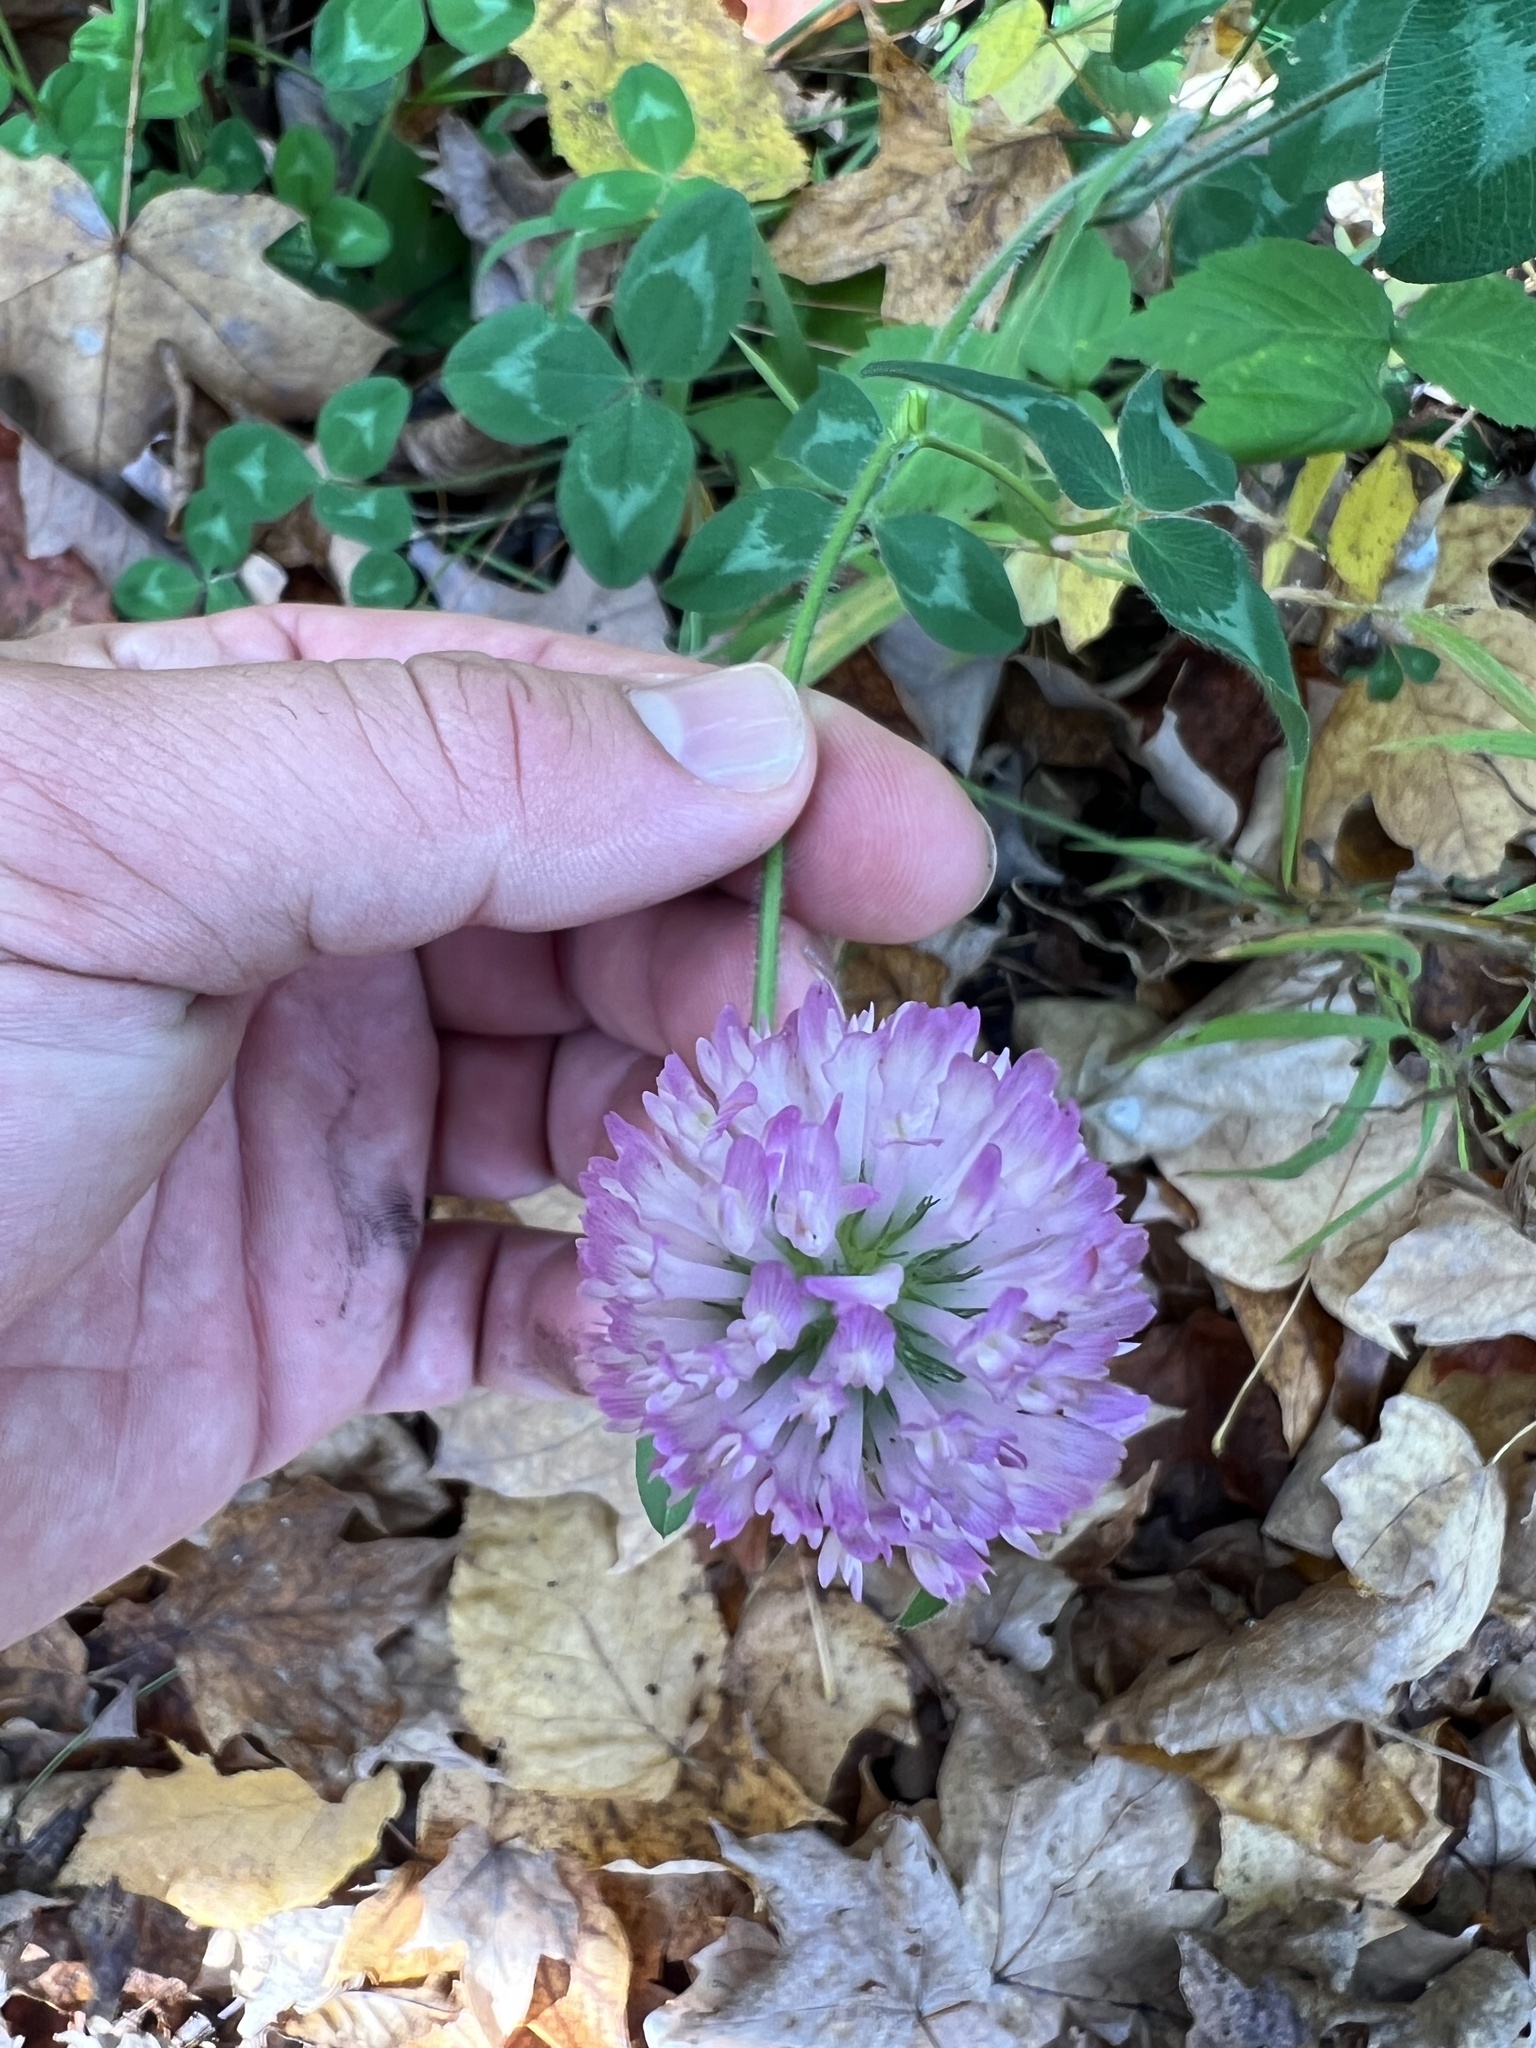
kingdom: Plantae
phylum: Tracheophyta
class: Magnoliopsida
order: Fabales
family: Fabaceae
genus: Trifolium
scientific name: Trifolium pratense
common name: Red clover
